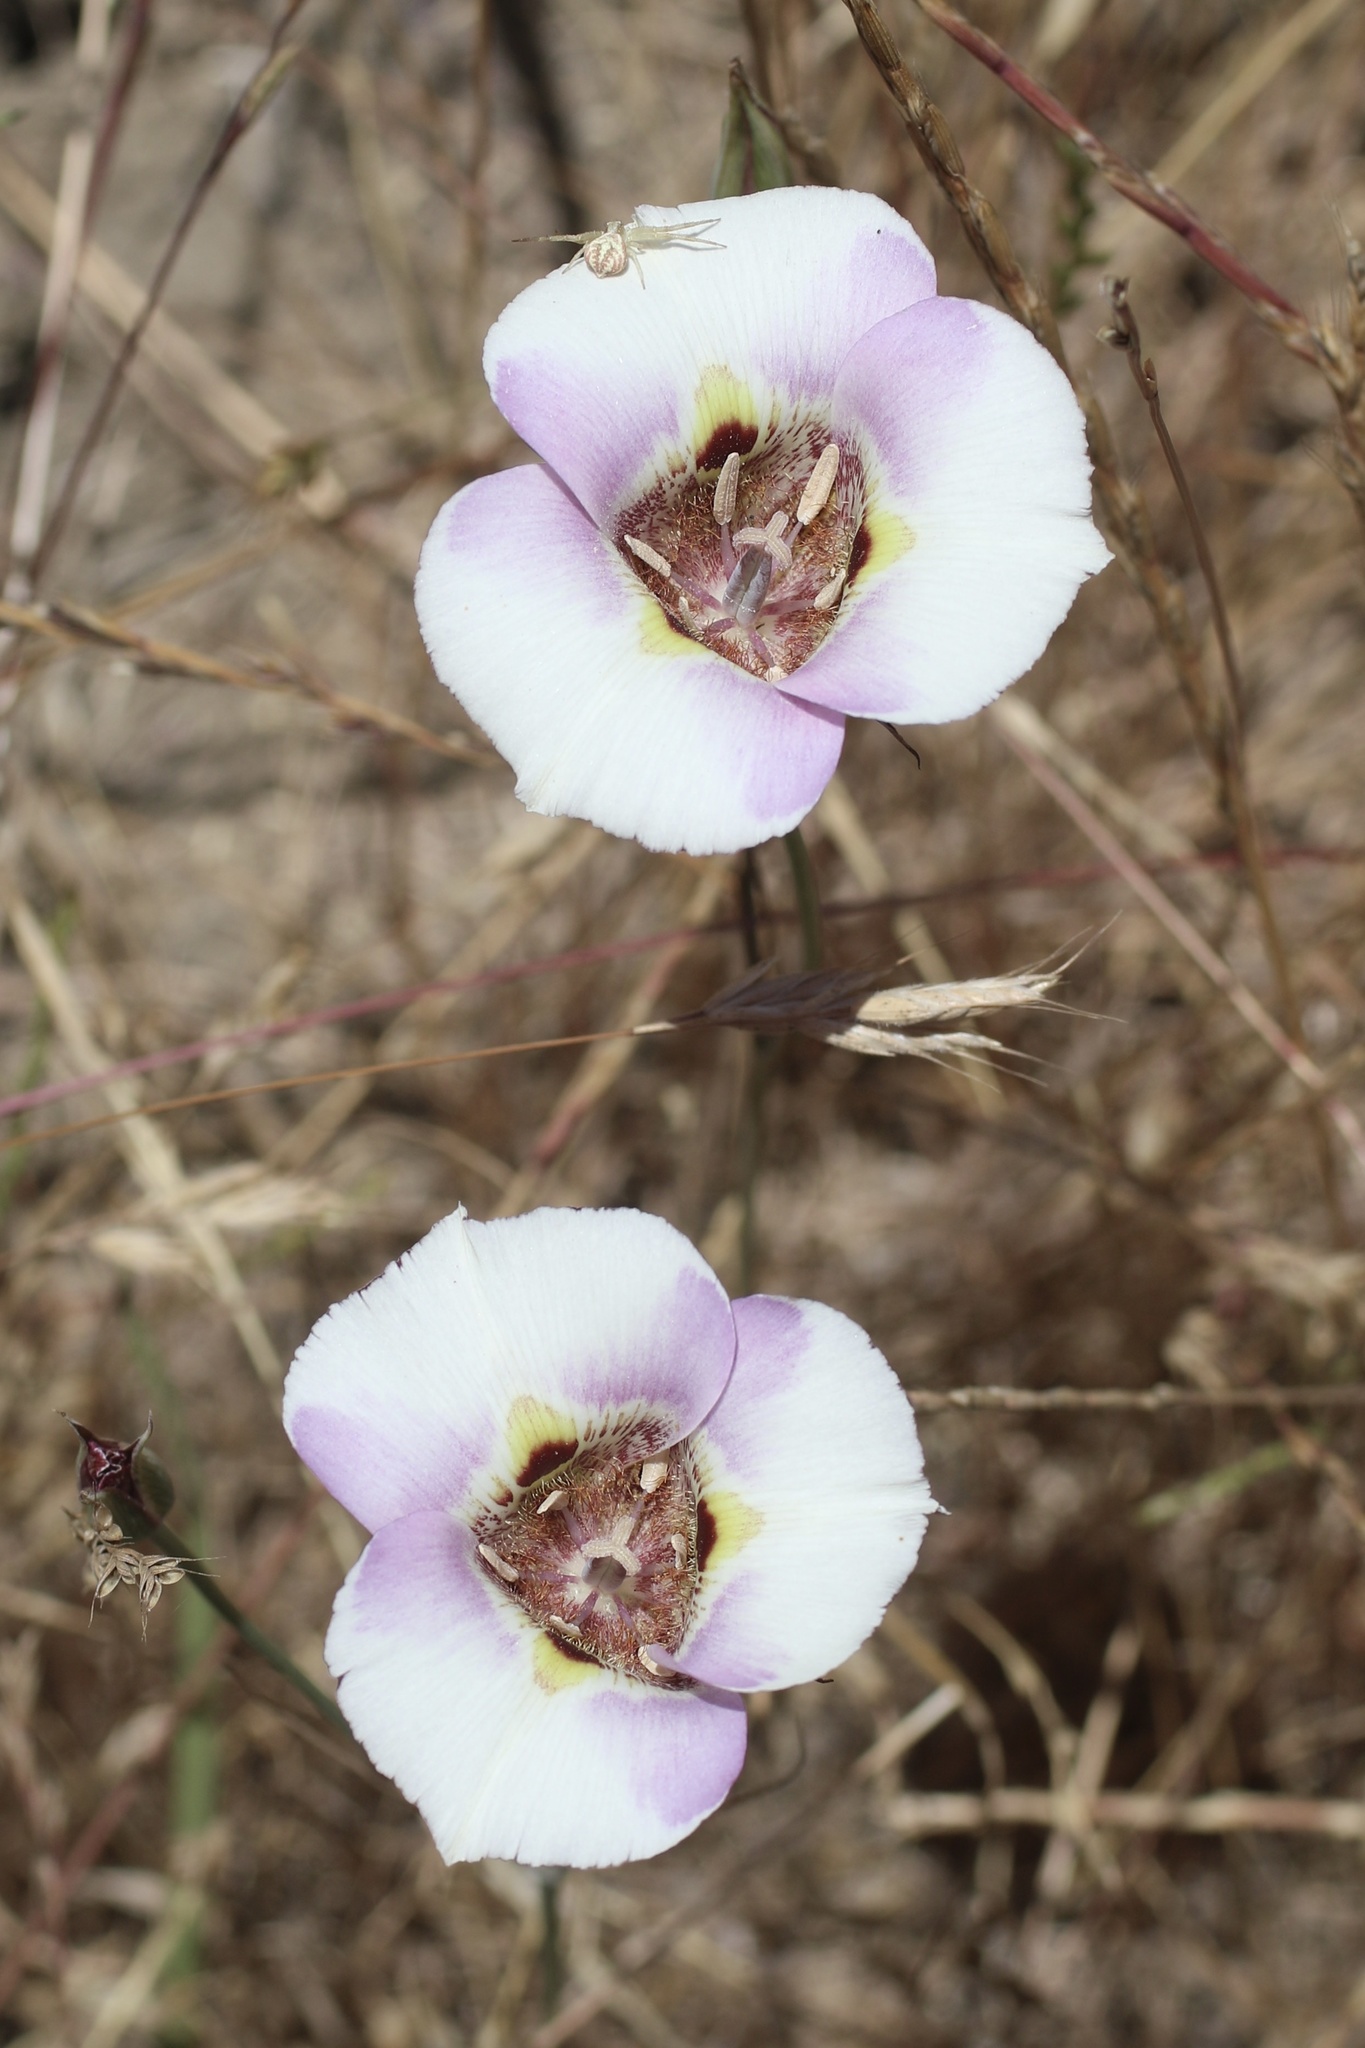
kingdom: Plantae
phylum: Tracheophyta
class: Liliopsida
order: Liliales
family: Liliaceae
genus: Calochortus
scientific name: Calochortus argillosus
